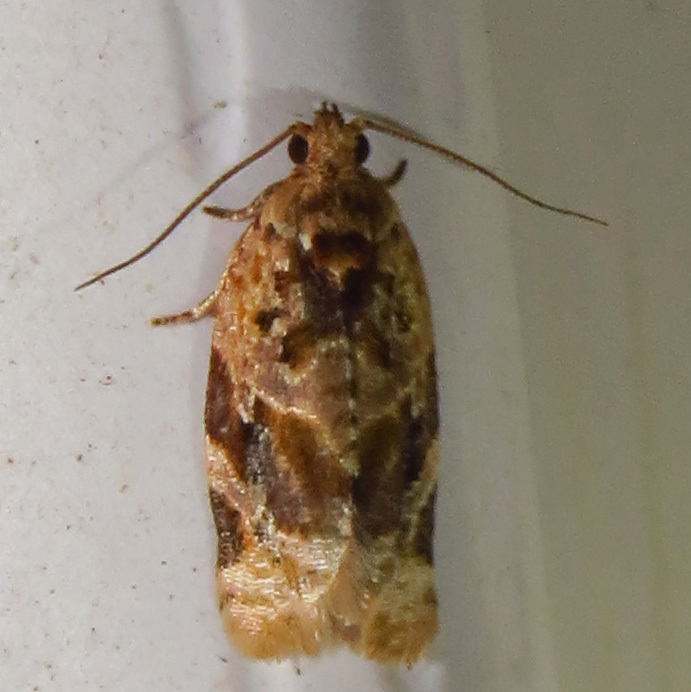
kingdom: Animalia
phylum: Arthropoda
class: Insecta
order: Lepidoptera
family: Tortricidae
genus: Argyrotaenia
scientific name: Argyrotaenia velutinana
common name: Red-banded leafroller moth
